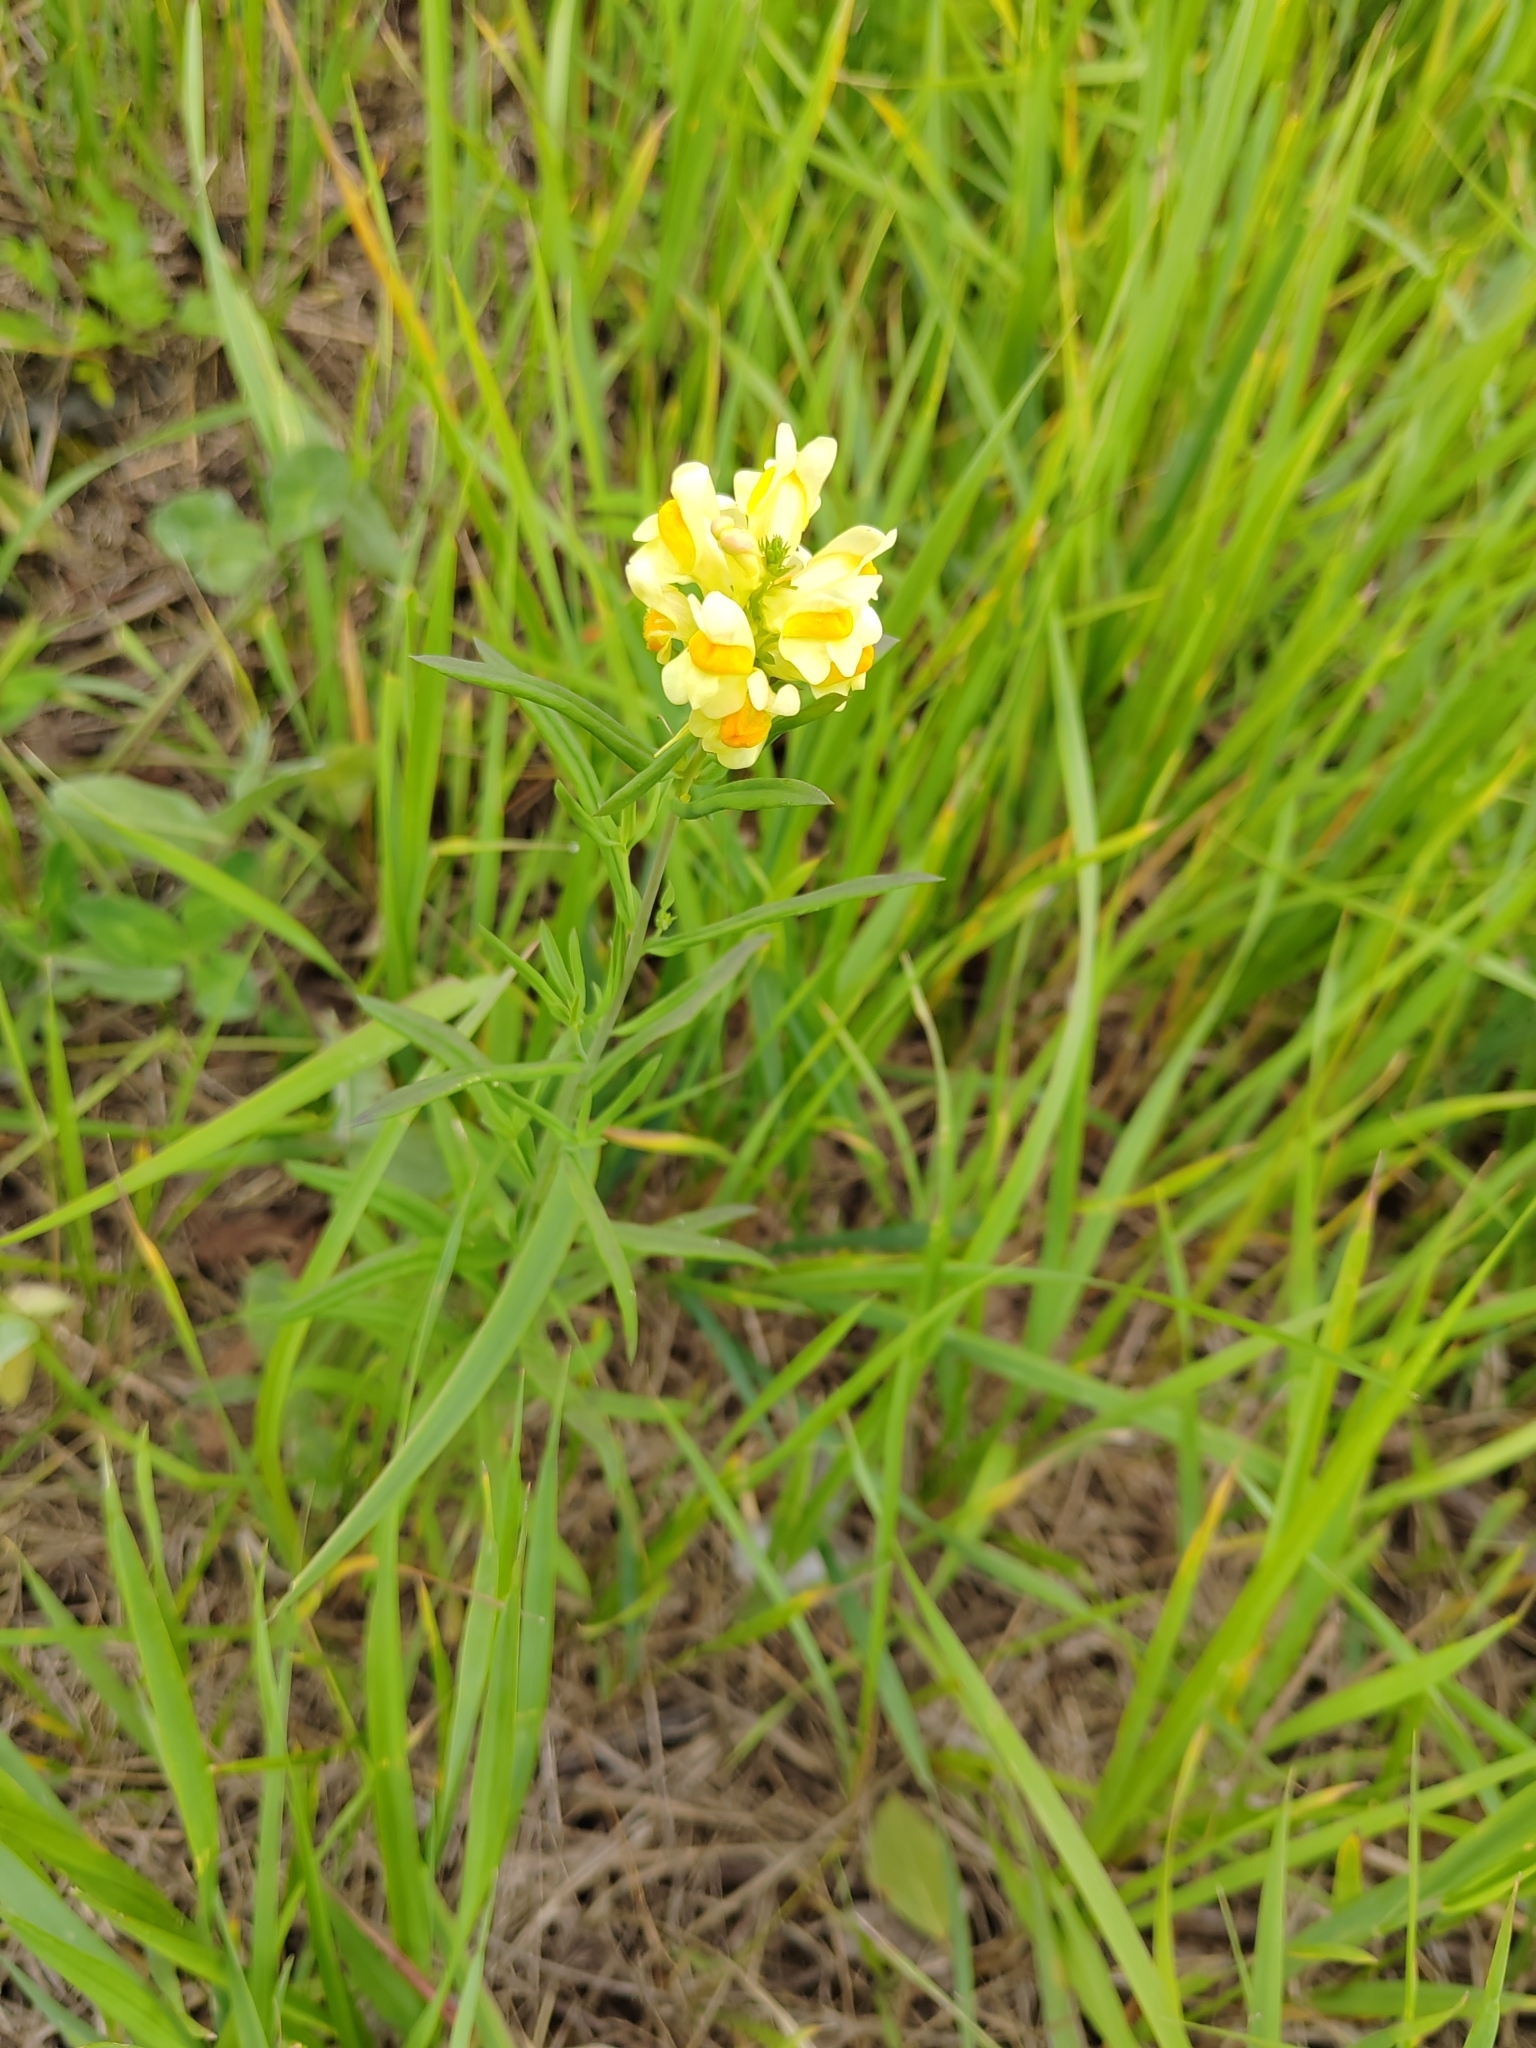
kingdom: Plantae
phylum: Tracheophyta
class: Magnoliopsida
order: Lamiales
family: Plantaginaceae
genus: Linaria
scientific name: Linaria vulgaris
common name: Butter and eggs
